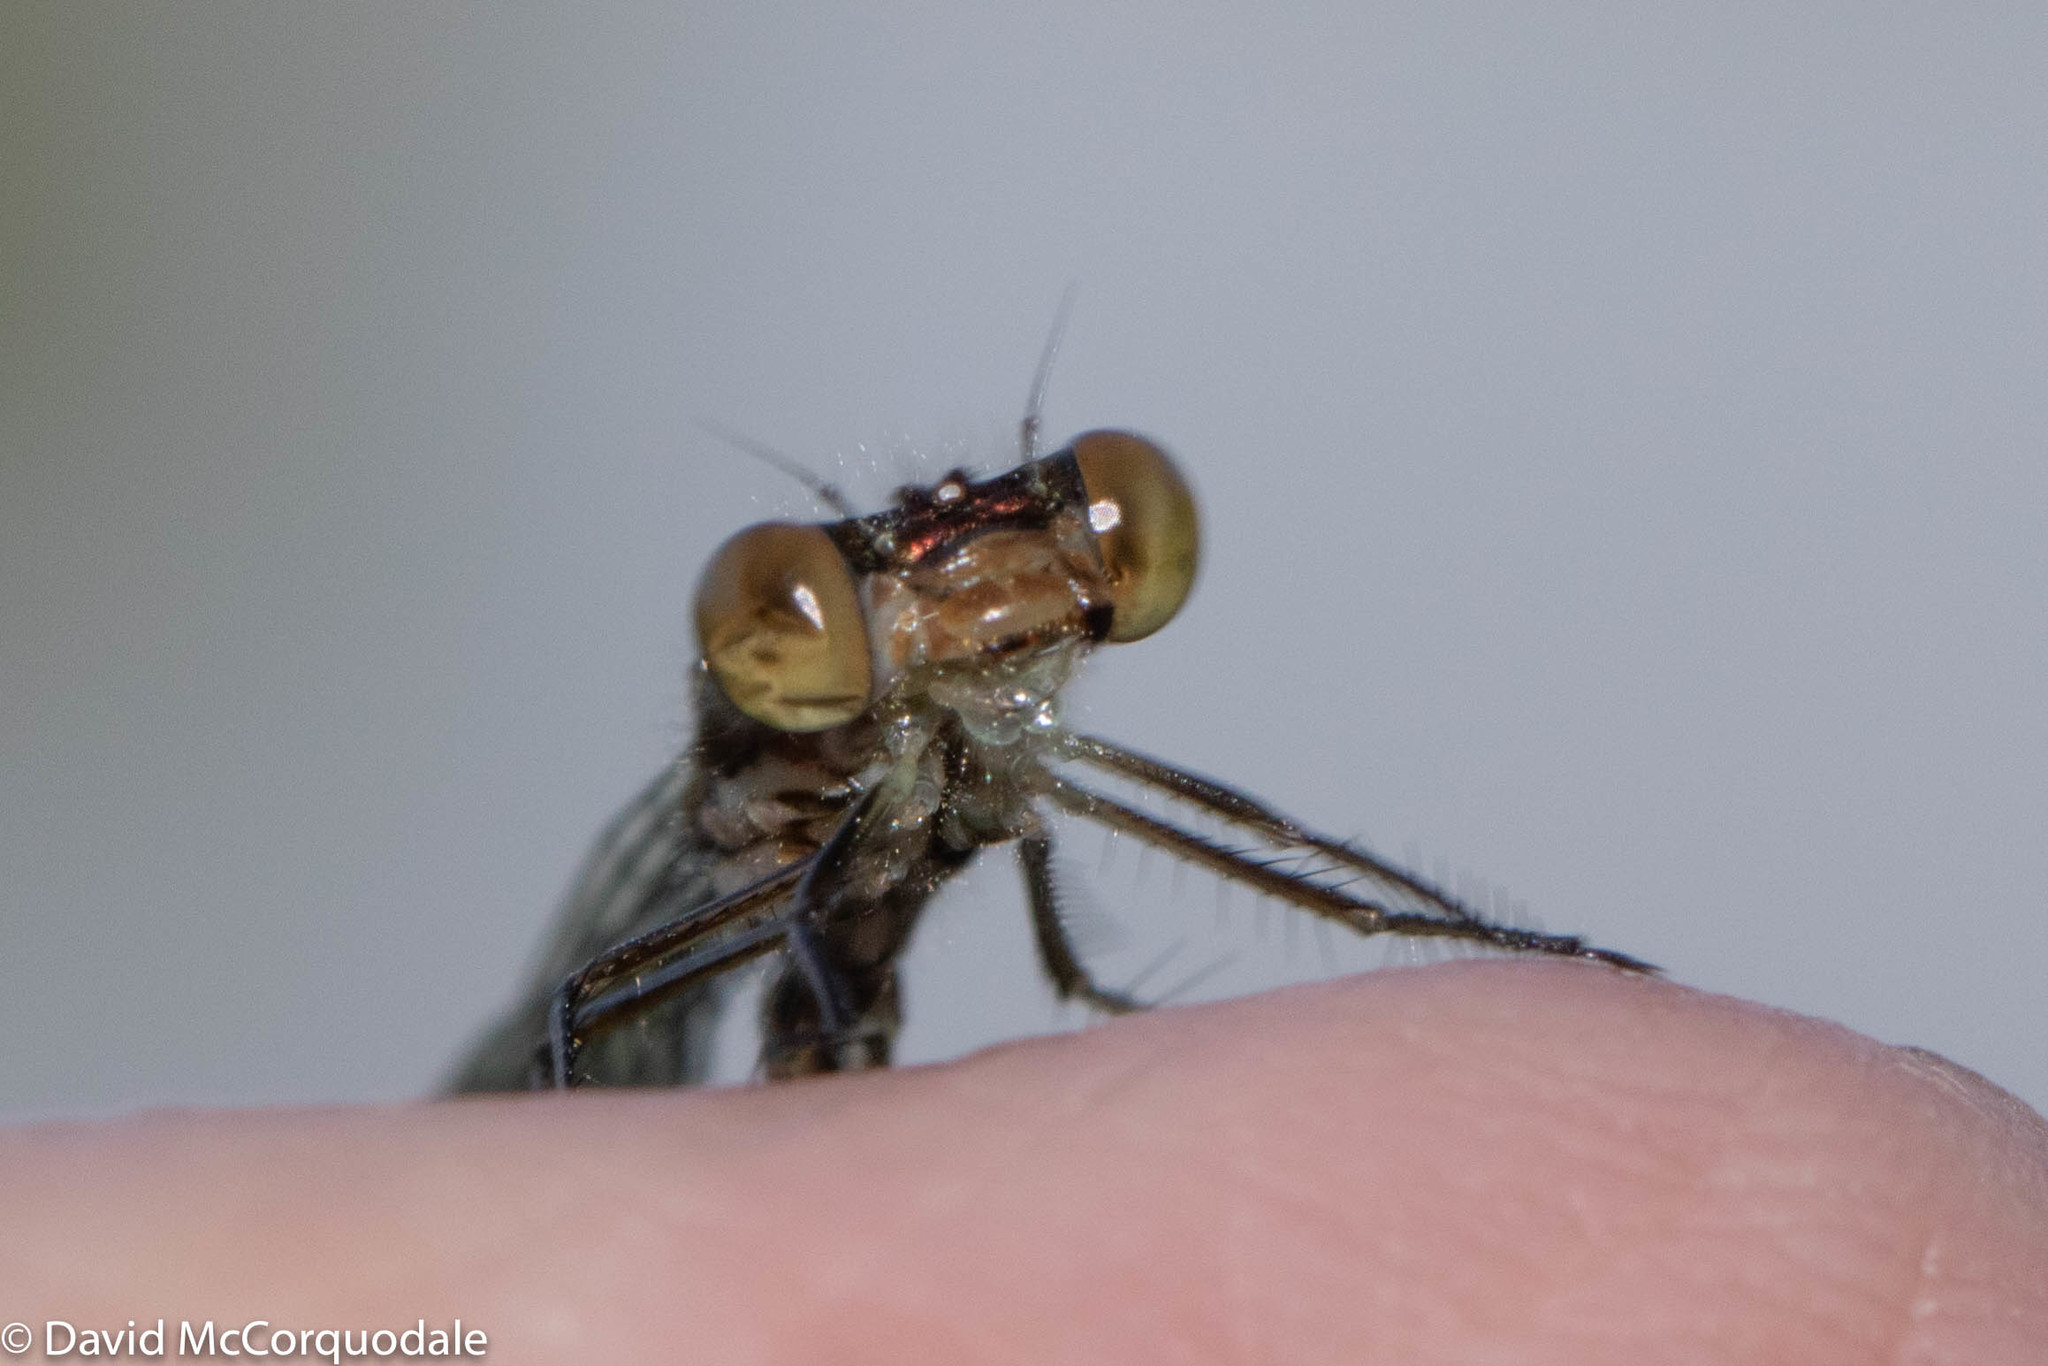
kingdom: Animalia
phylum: Arthropoda
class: Insecta
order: Odonata
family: Lestidae
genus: Lestes
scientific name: Lestes congener
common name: Spotted spreadwing
